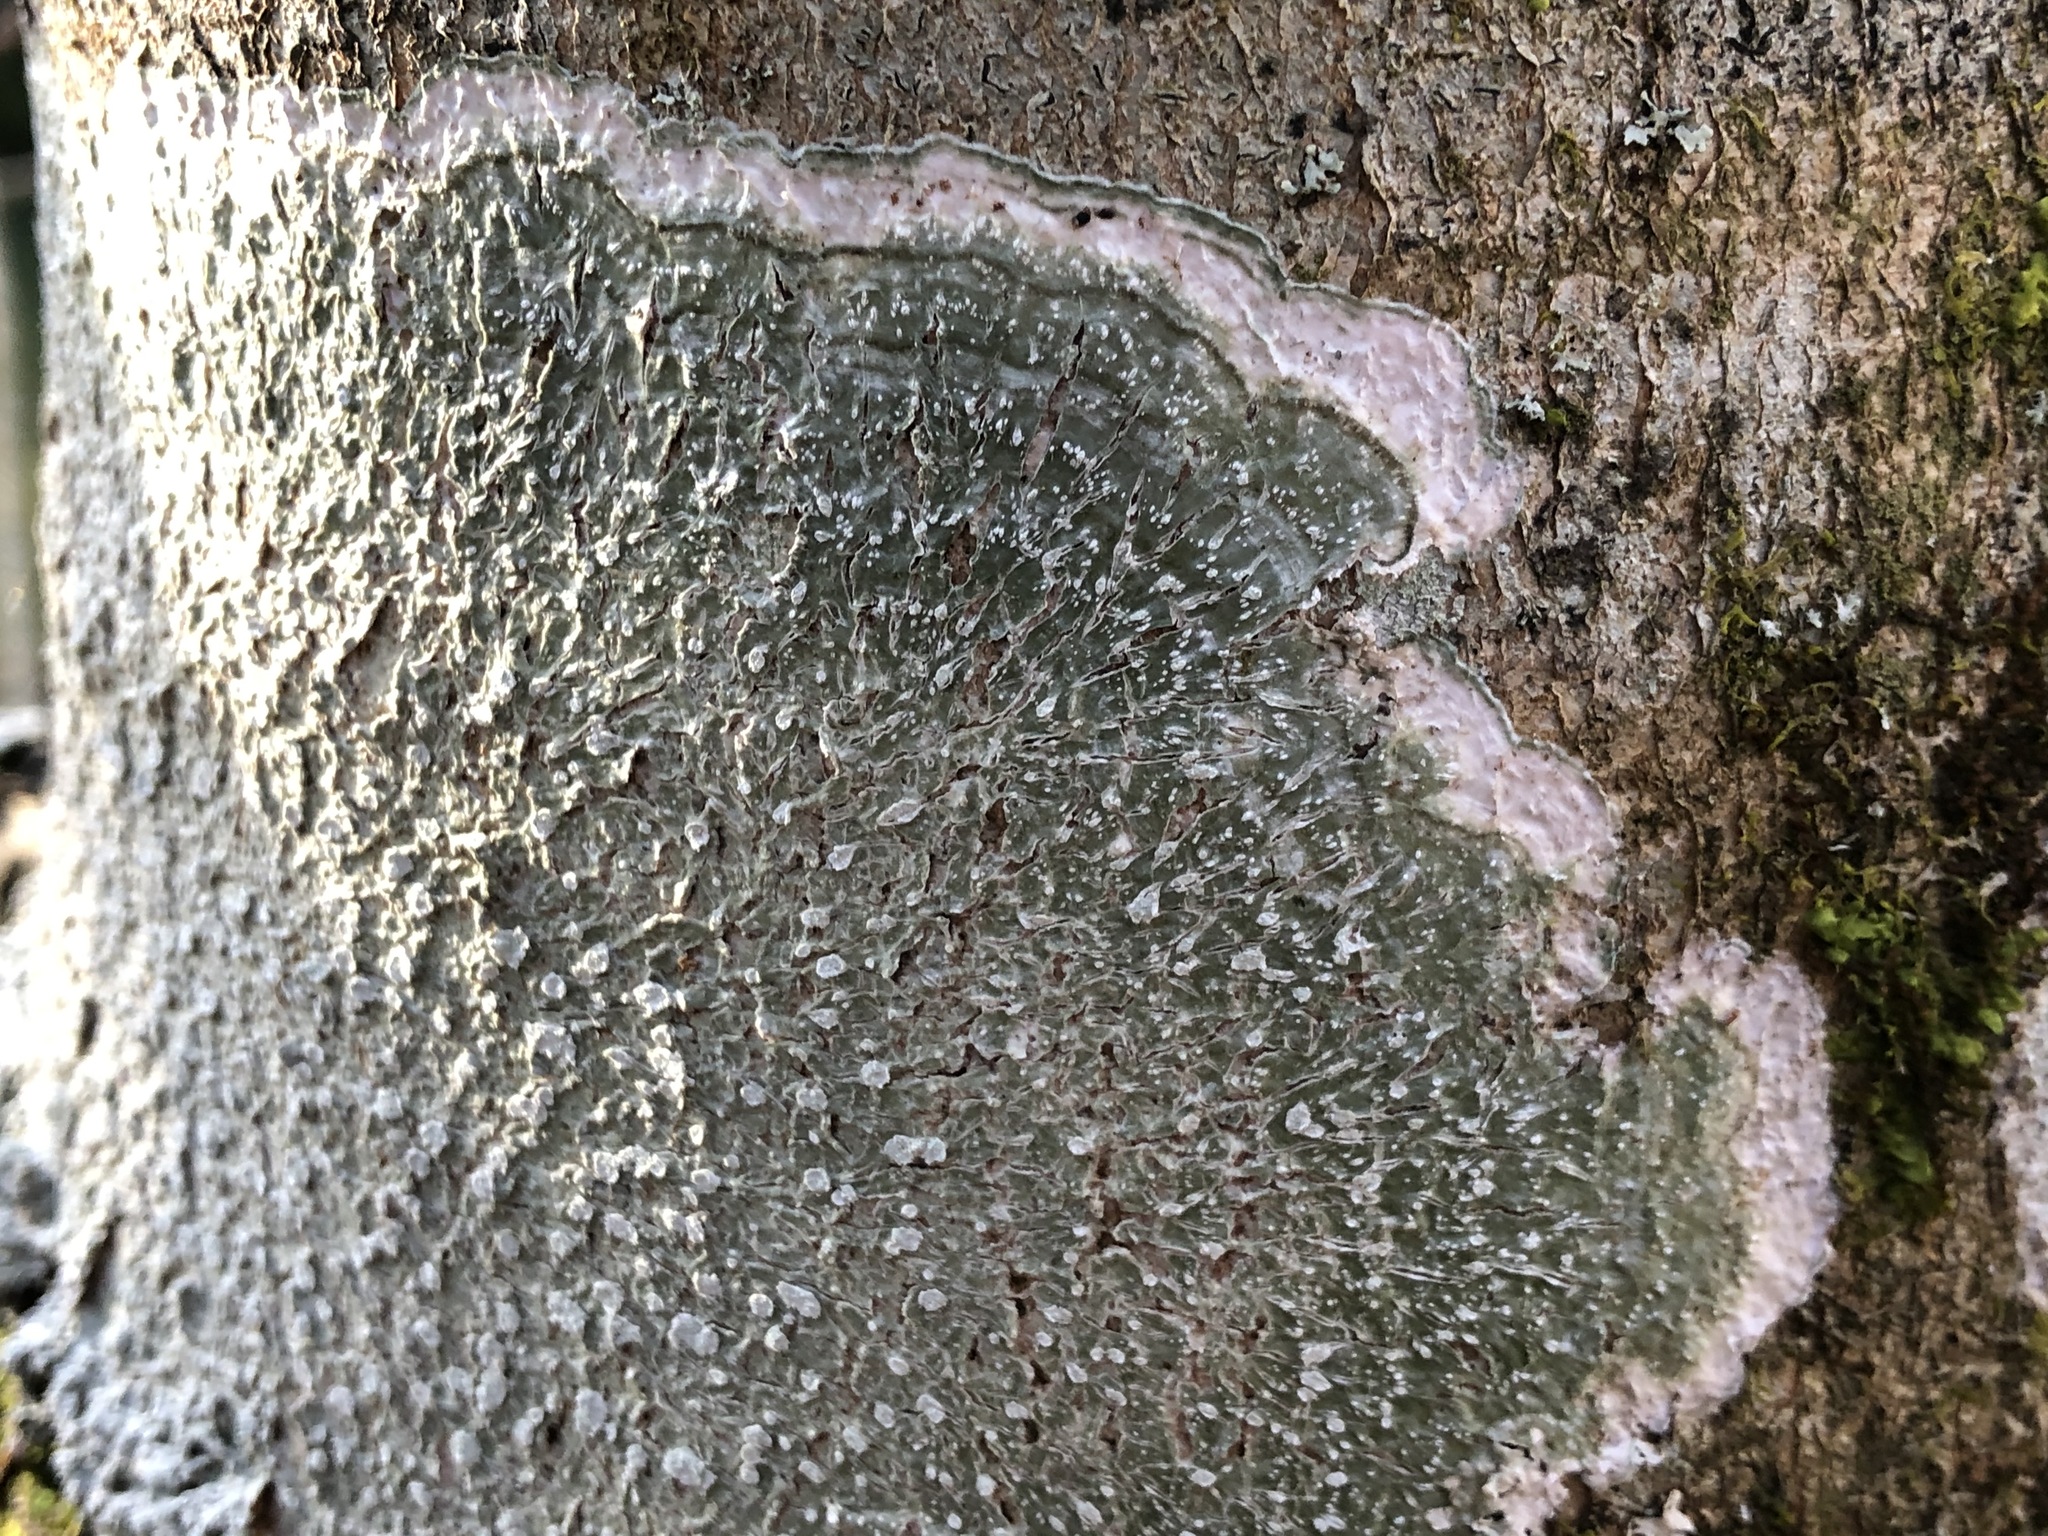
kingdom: Fungi
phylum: Ascomycota
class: Lecanoromycetes
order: Pertusariales
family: Pertusariaceae
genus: Lepra
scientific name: Lepra albescens
